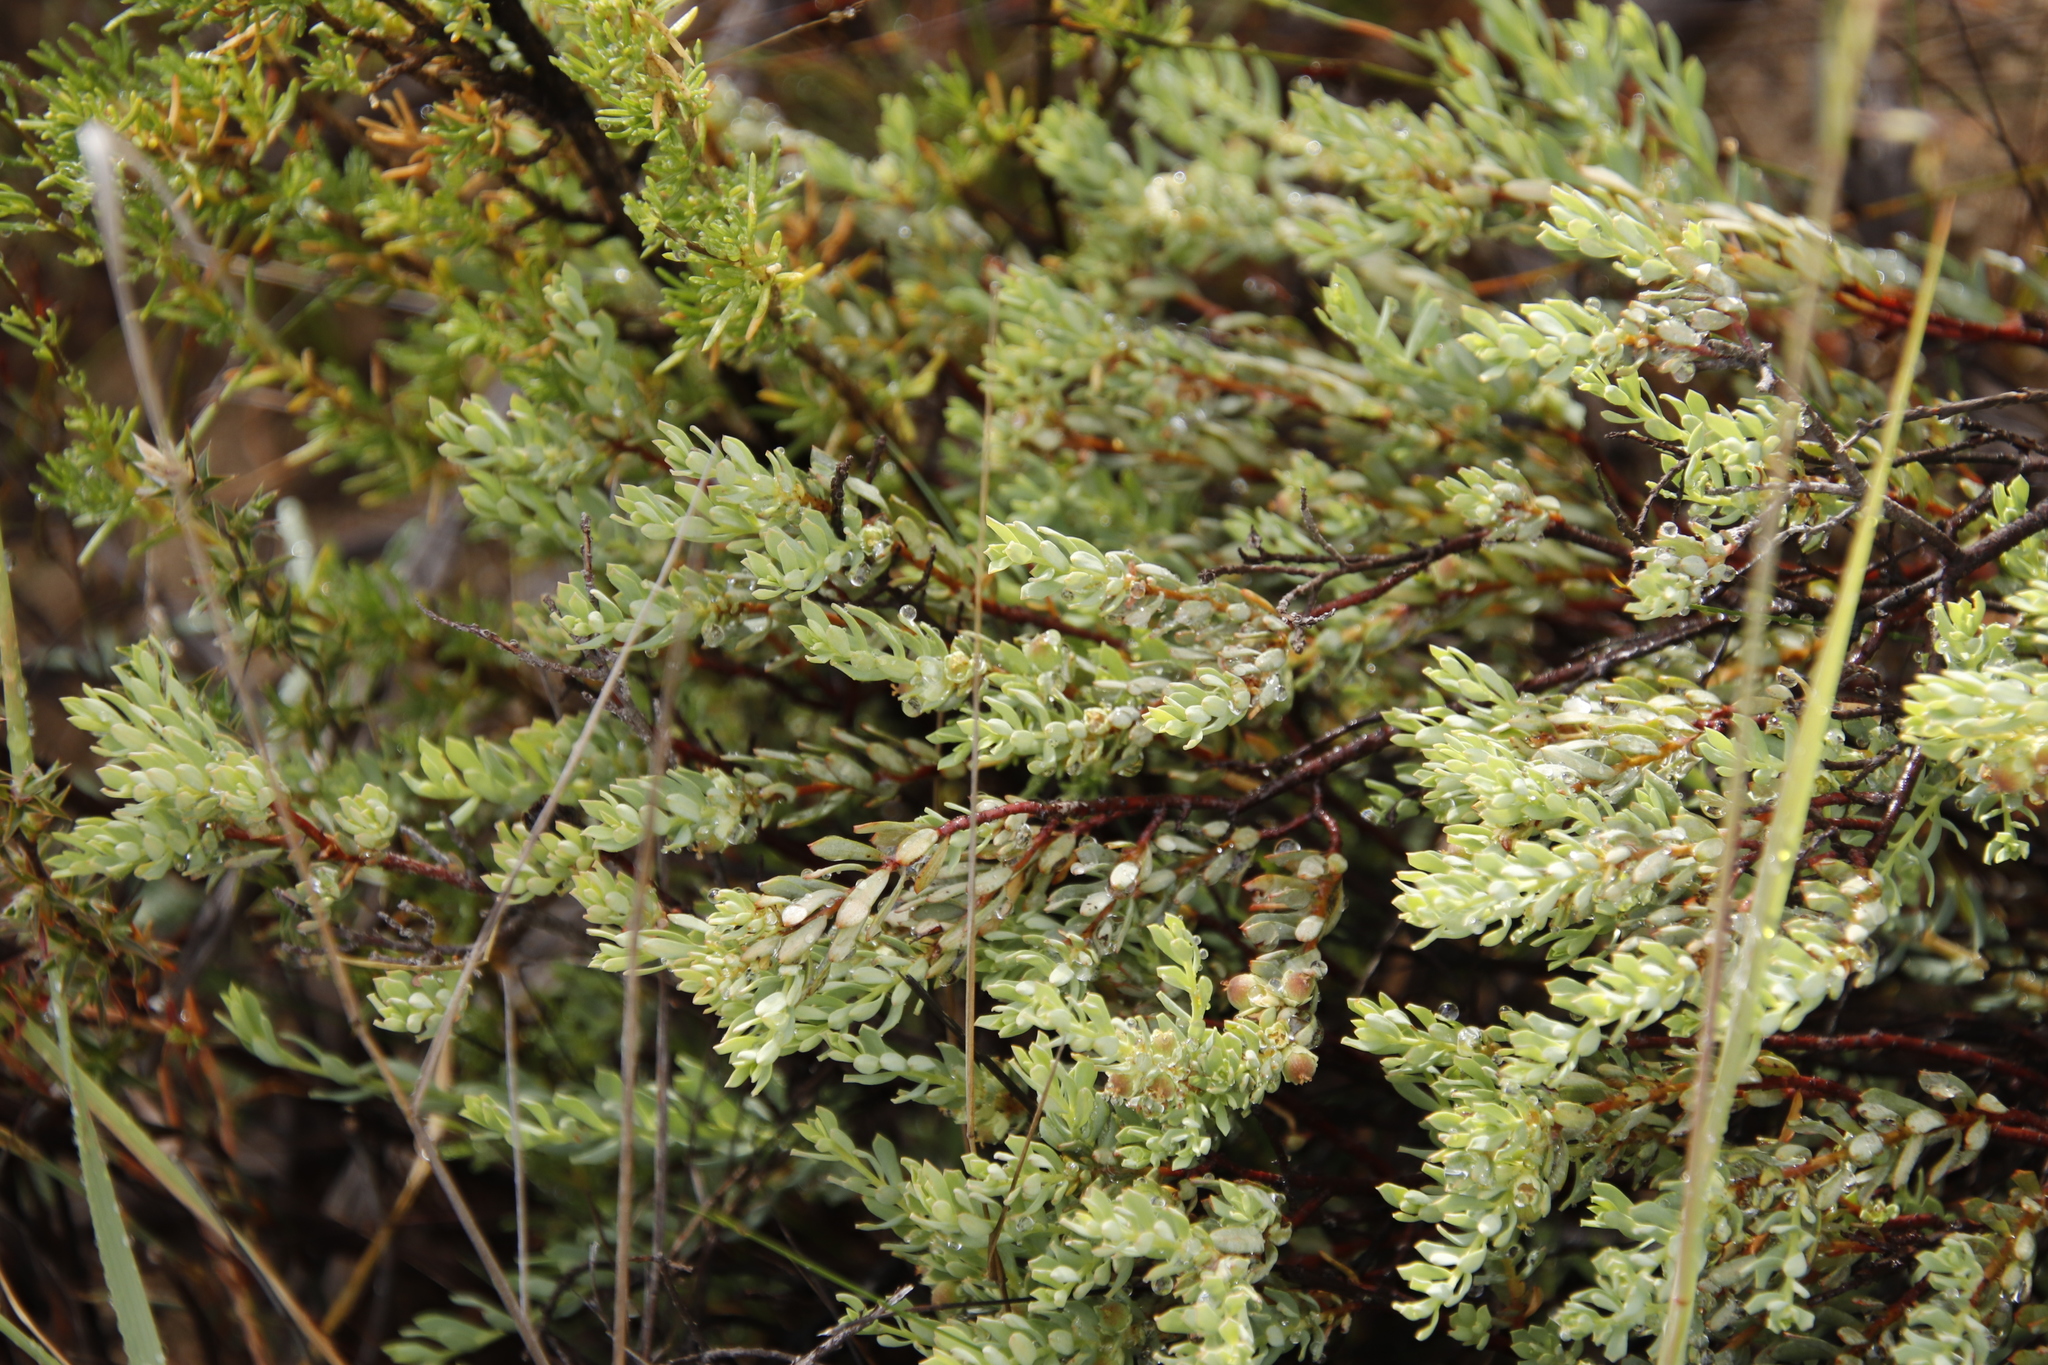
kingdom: Plantae
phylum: Tracheophyta
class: Magnoliopsida
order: Proteales
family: Proteaceae
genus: Leucadendron
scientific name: Leucadendron pubescens
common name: Grey conebush
